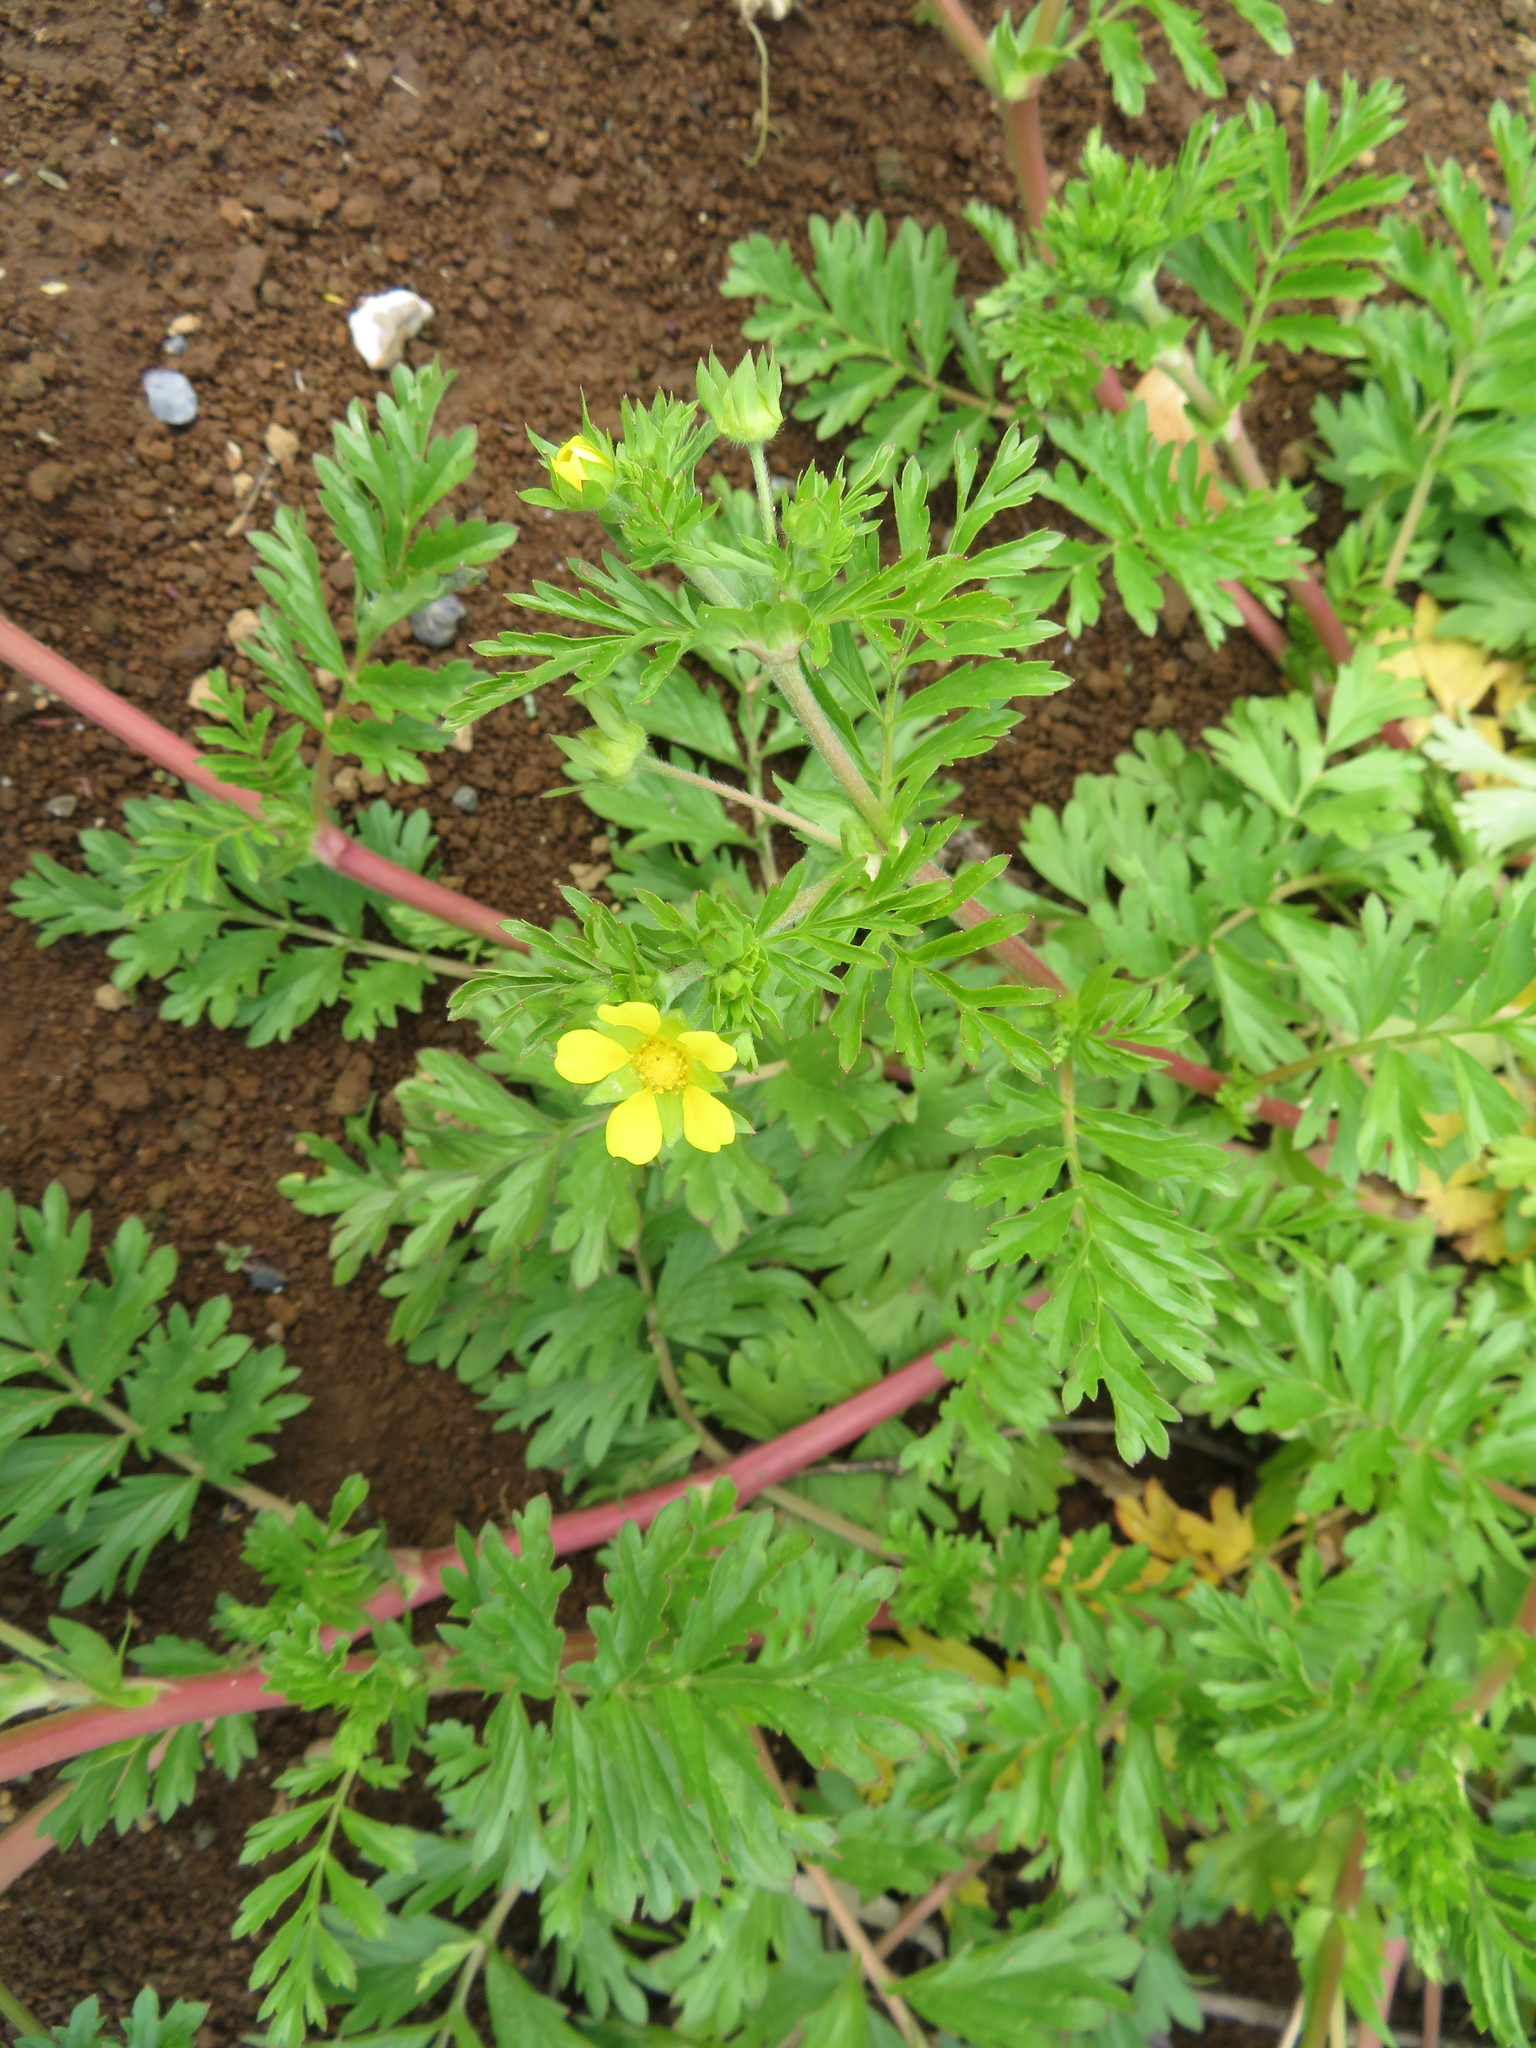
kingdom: Plantae
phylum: Tracheophyta
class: Magnoliopsida
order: Rosales
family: Rosaceae
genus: Potentilla
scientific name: Potentilla supina
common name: Prostrate cinquefoil
